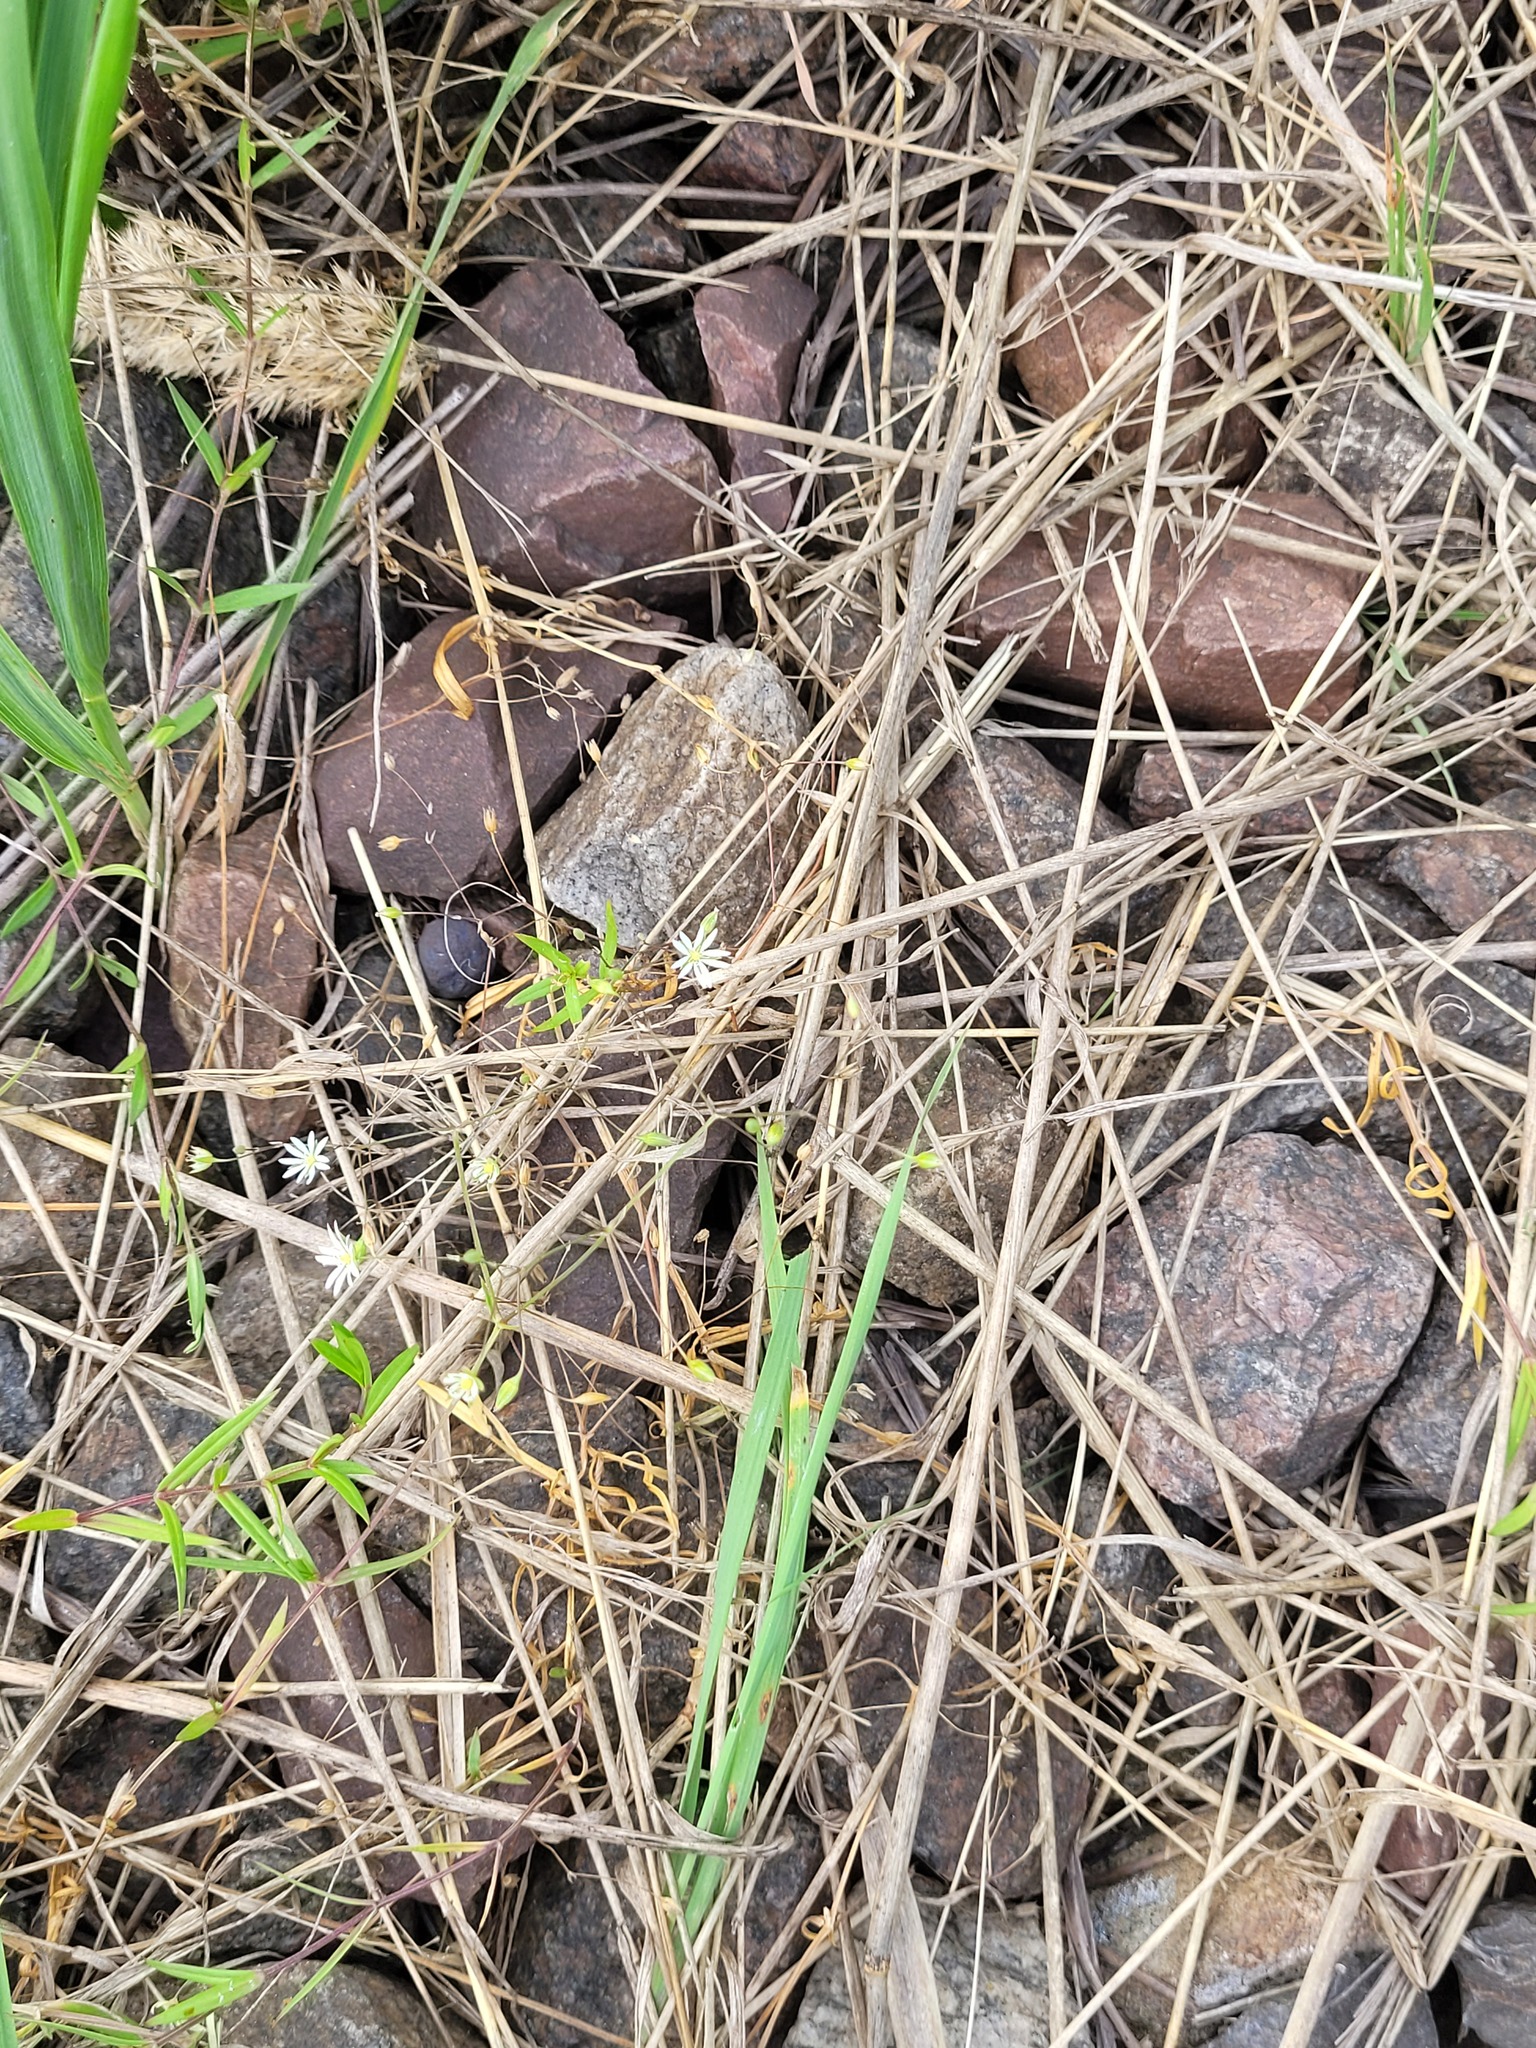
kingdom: Plantae
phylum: Tracheophyta
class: Magnoliopsida
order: Caryophyllales
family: Caryophyllaceae
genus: Stellaria
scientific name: Stellaria graminea
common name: Grass-like starwort
